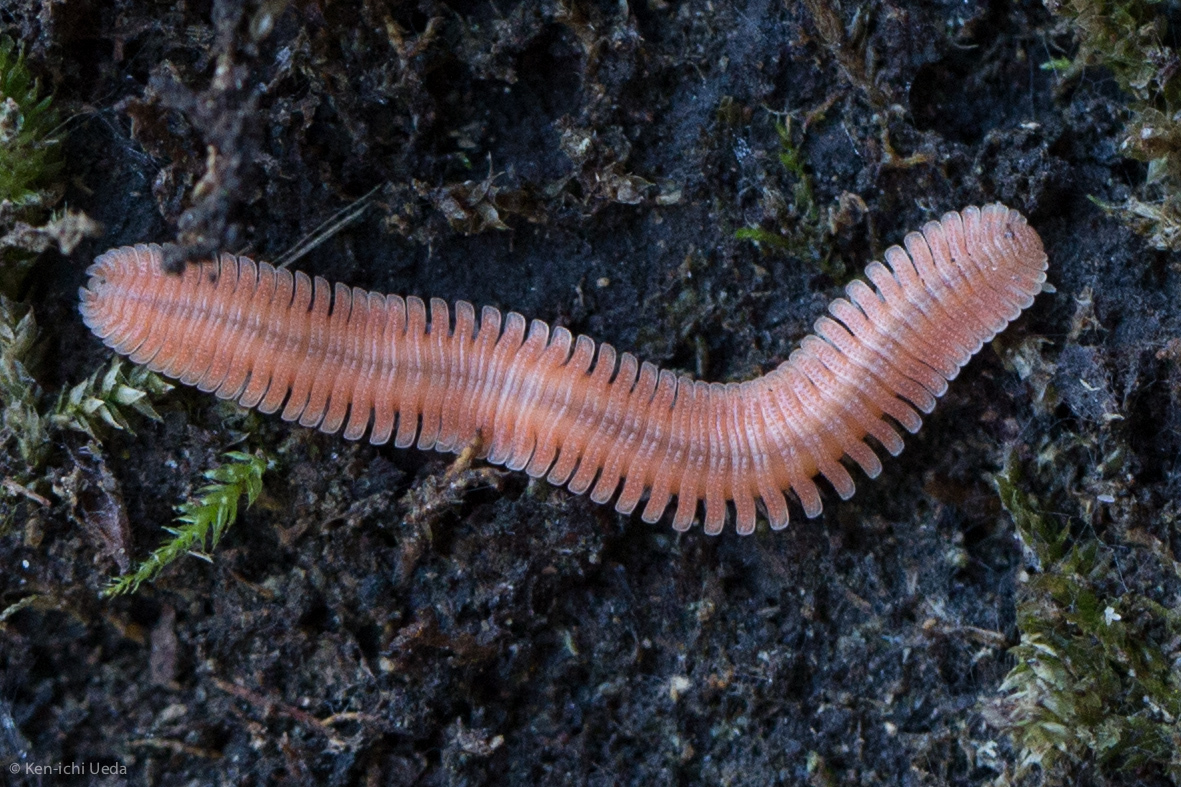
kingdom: Animalia
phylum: Arthropoda
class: Diplopoda
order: Platydesmida
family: Andrognathidae
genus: Brachycybe
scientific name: Brachycybe rosea
